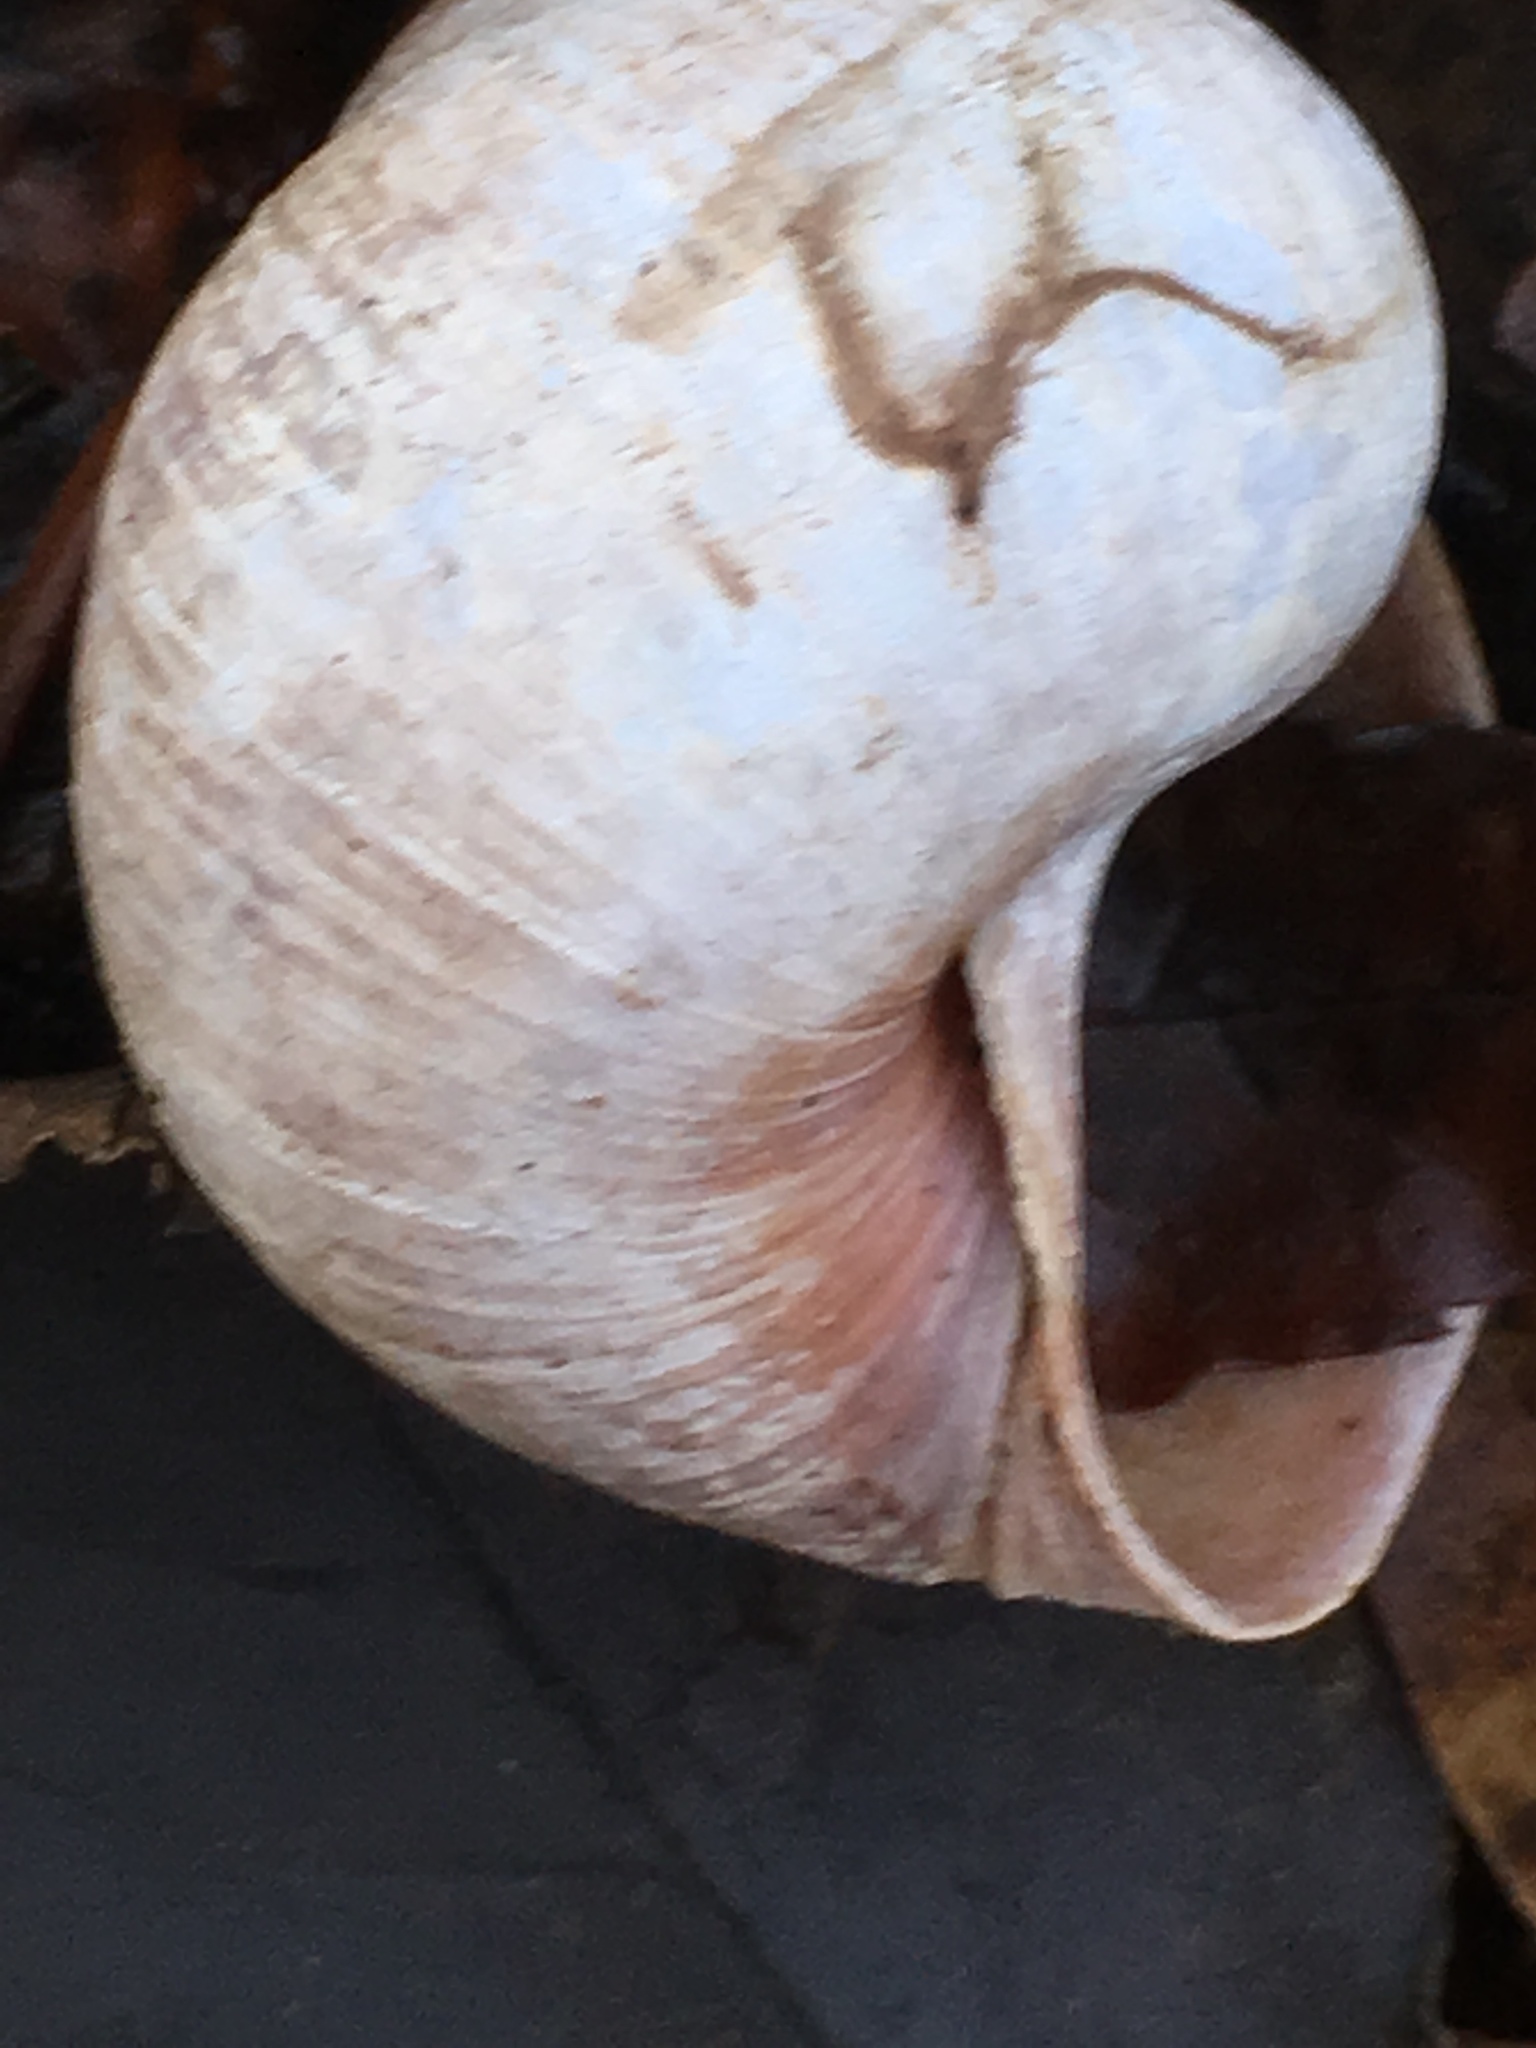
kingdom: Animalia
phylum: Mollusca
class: Gastropoda
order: Stylommatophora
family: Helicidae
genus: Helix
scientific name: Helix pomatia
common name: Roman snail
